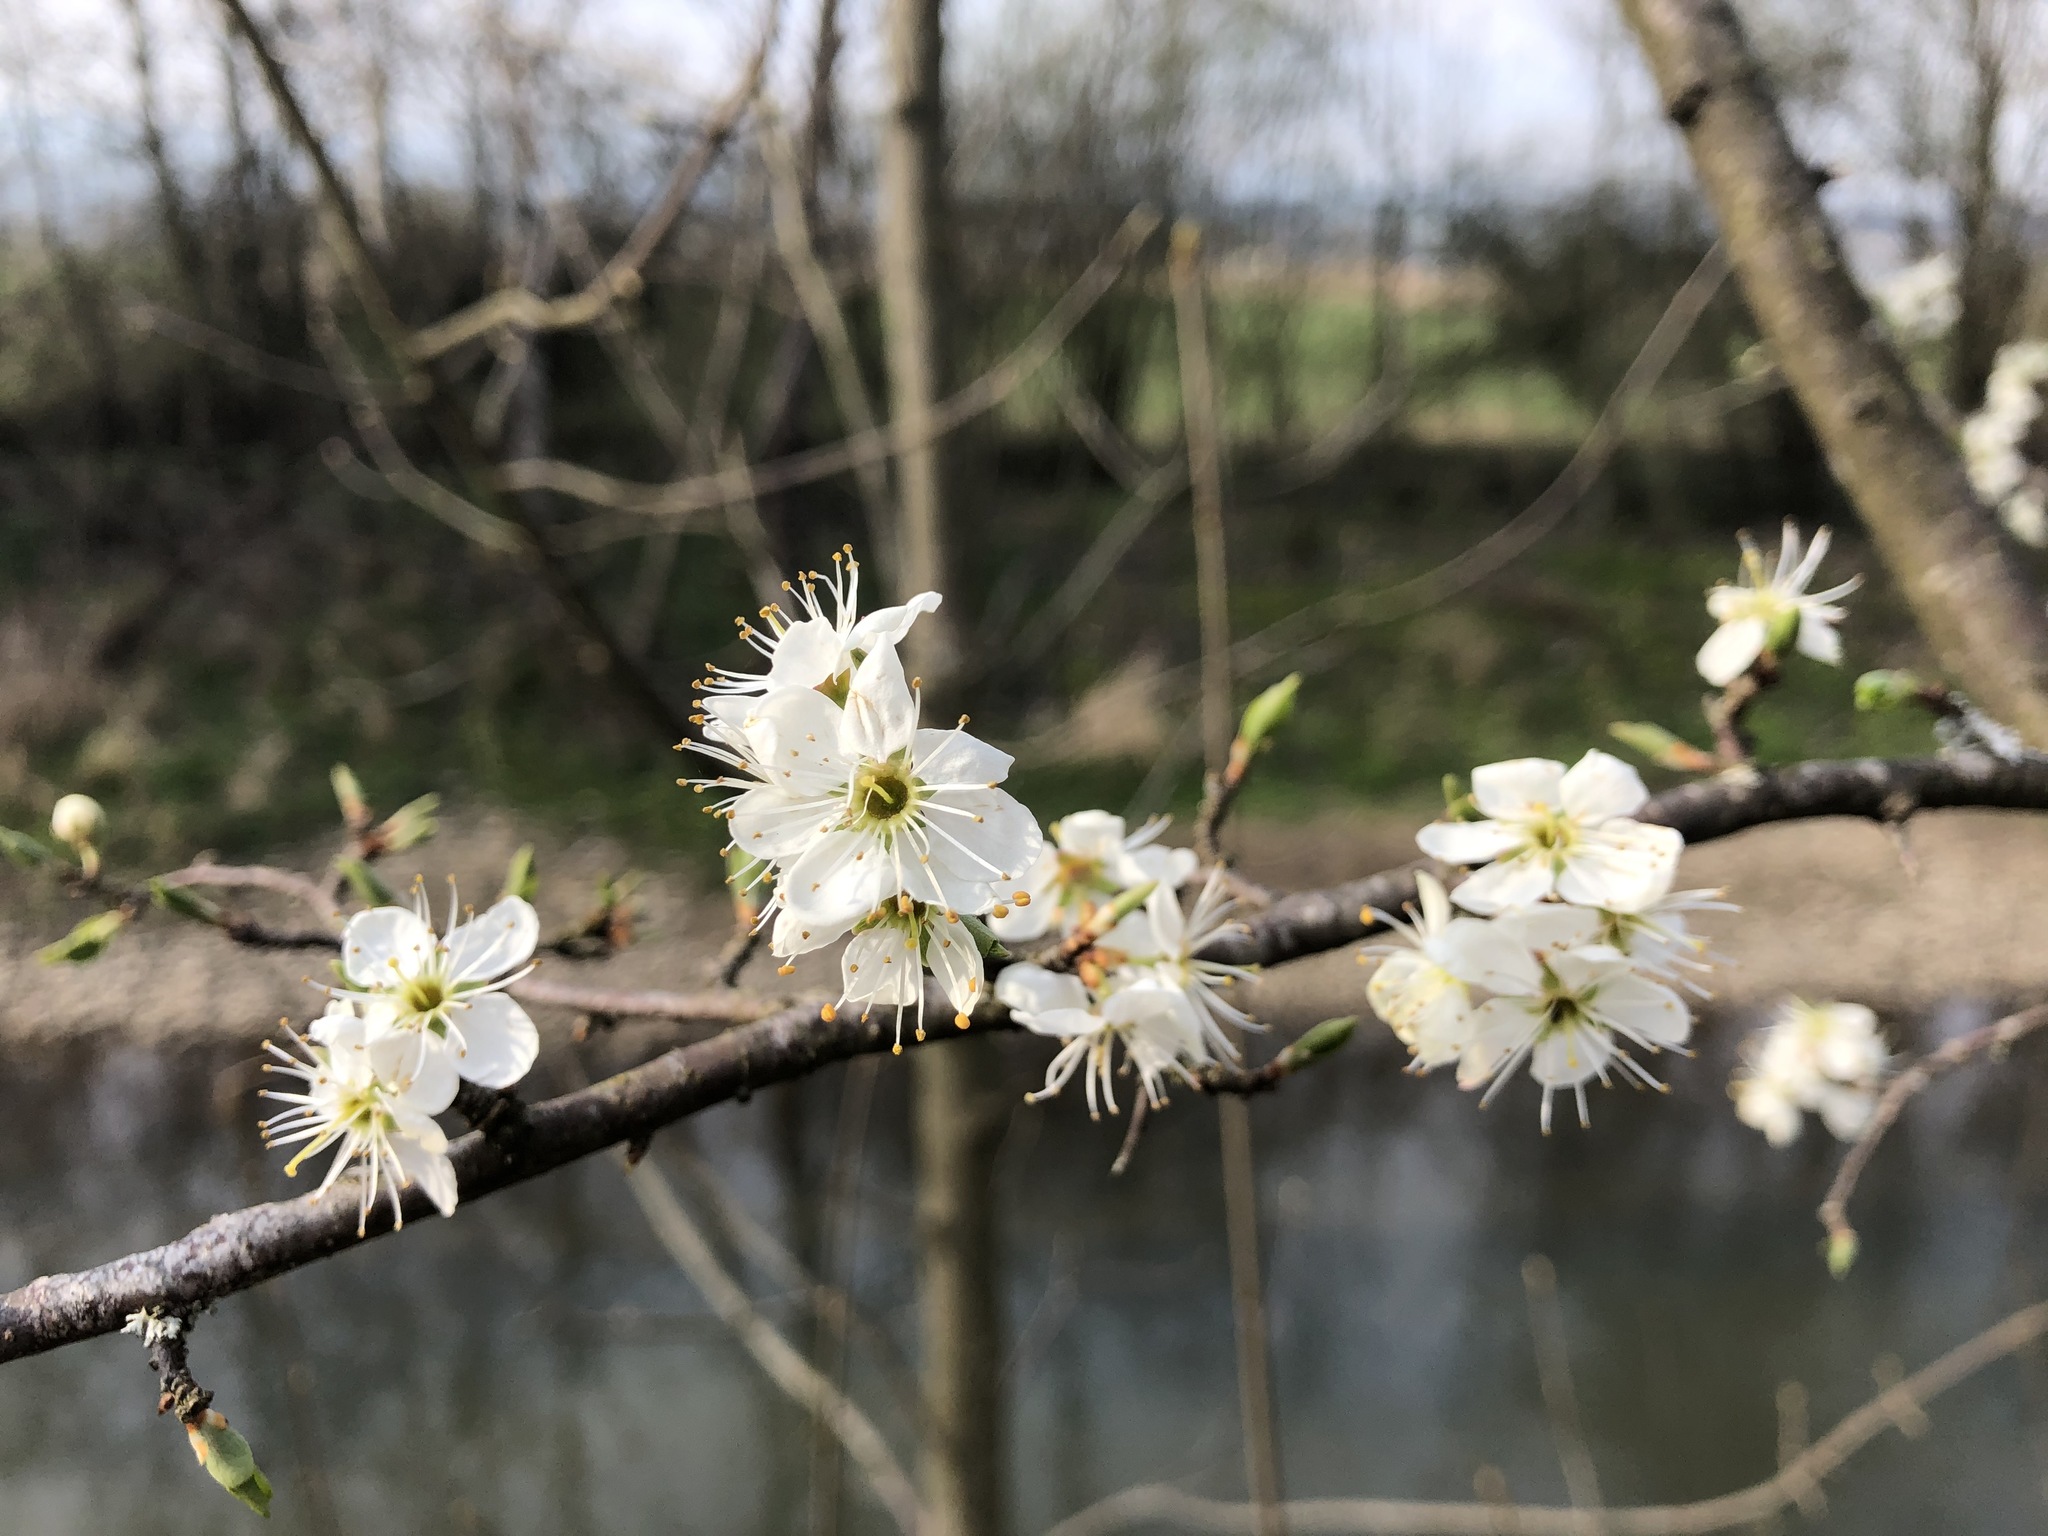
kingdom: Plantae
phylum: Tracheophyta
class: Magnoliopsida
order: Rosales
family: Rosaceae
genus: Prunus
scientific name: Prunus spinosa
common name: Blackthorn
